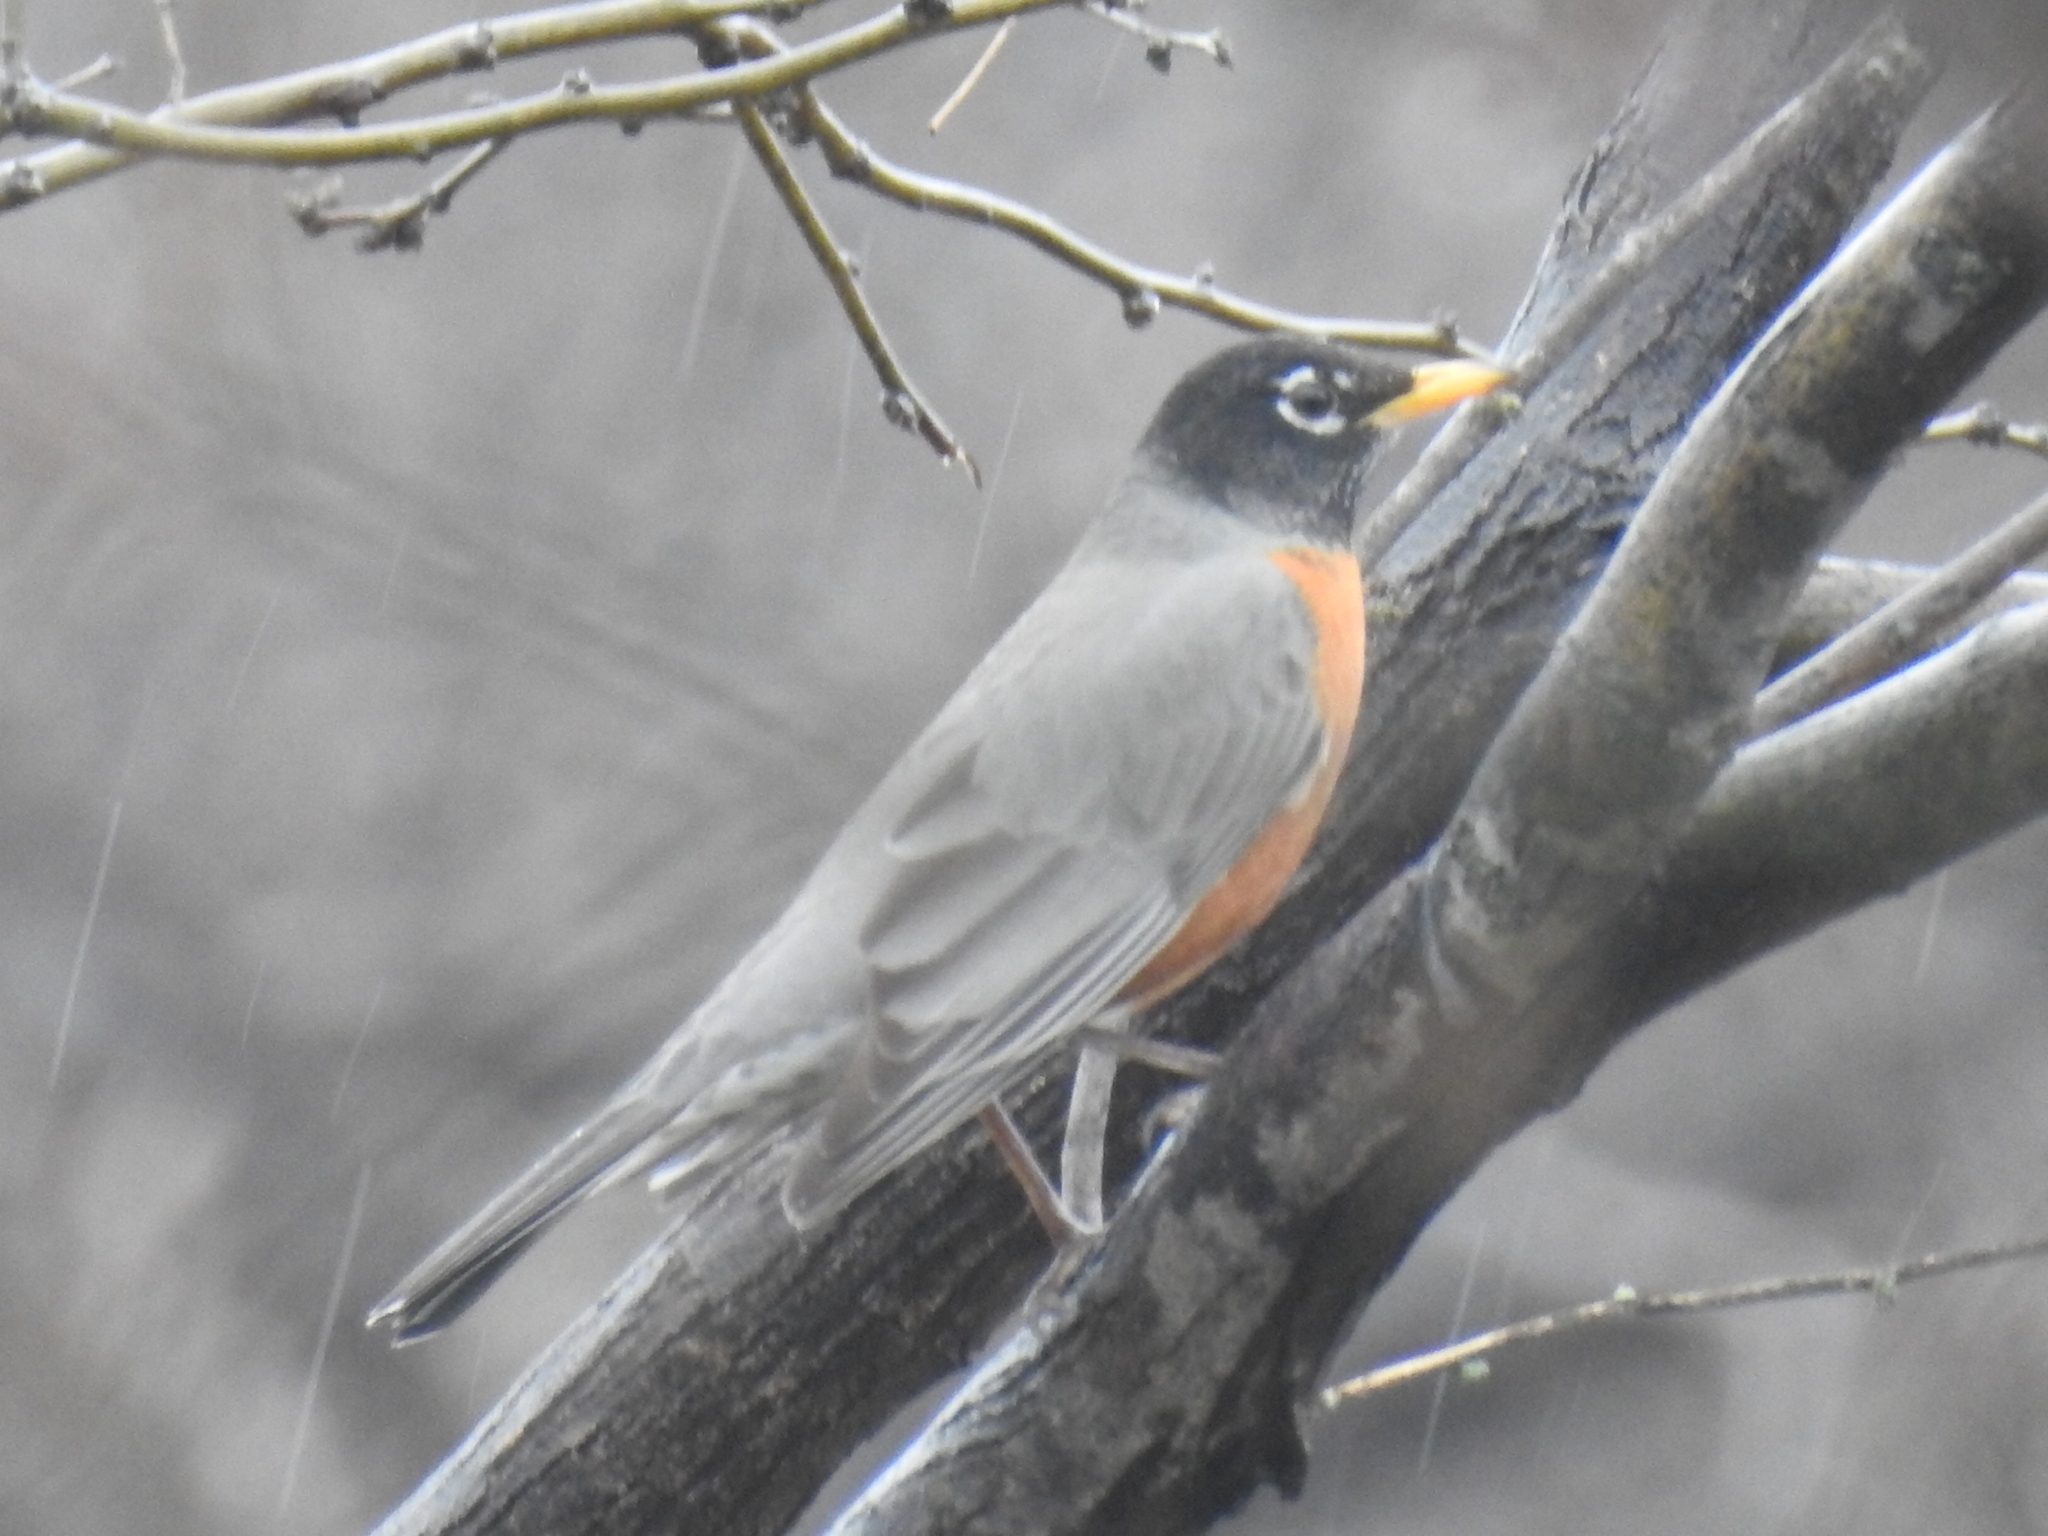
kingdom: Animalia
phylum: Chordata
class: Aves
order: Passeriformes
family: Turdidae
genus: Turdus
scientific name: Turdus migratorius
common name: American robin
